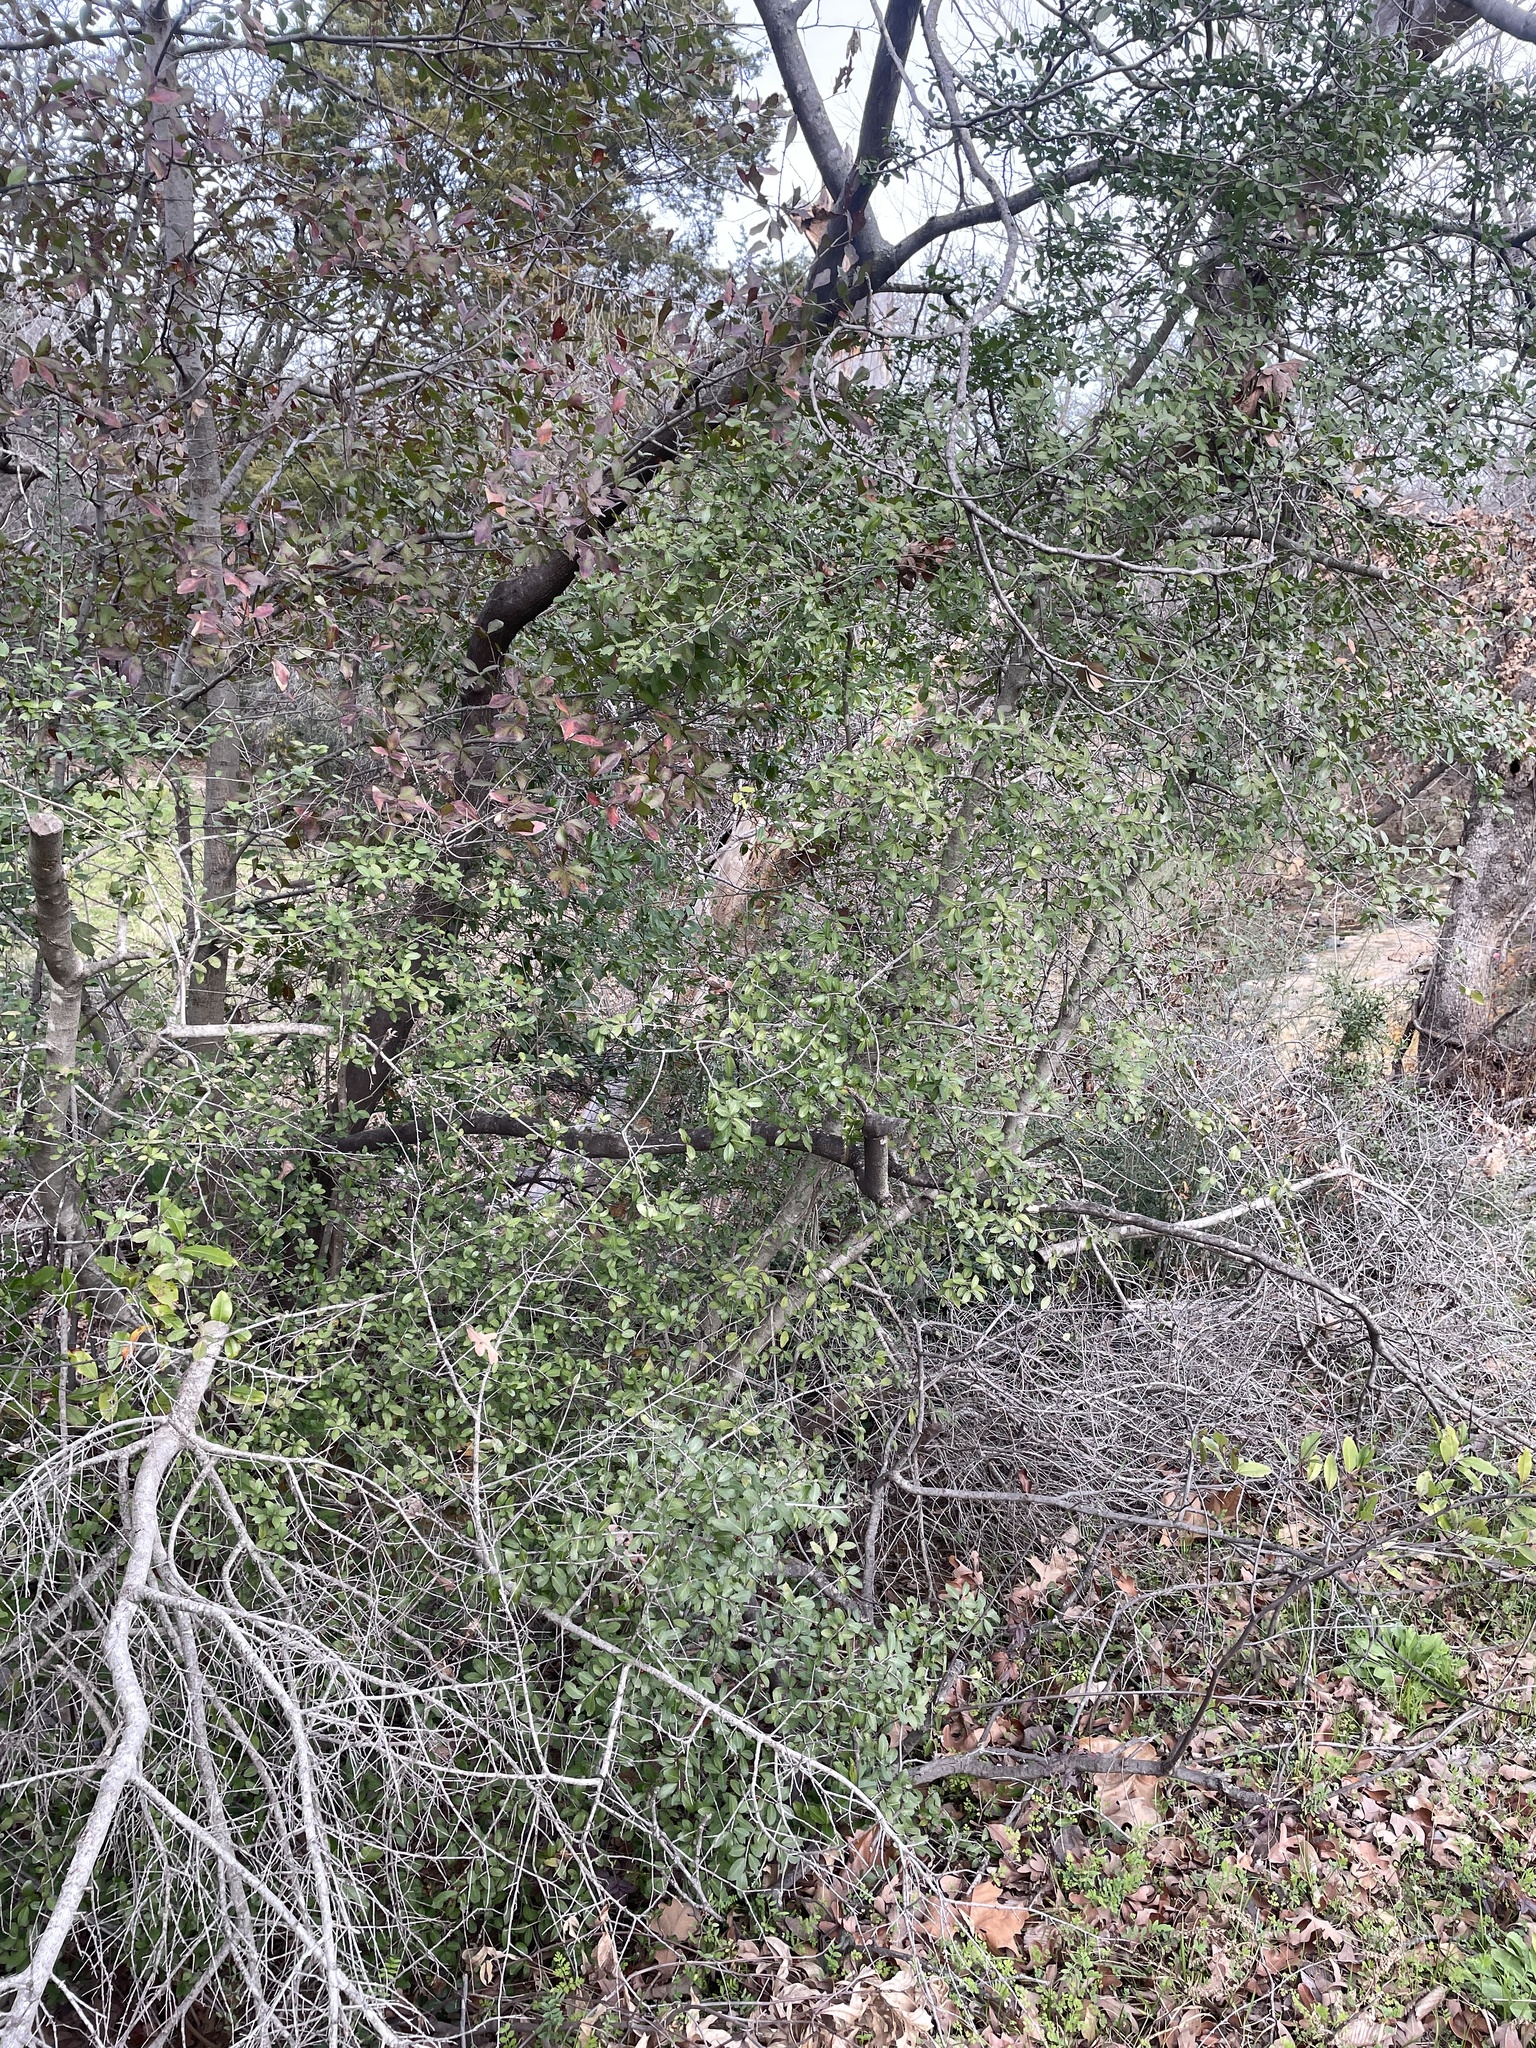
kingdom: Plantae
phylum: Tracheophyta
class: Magnoliopsida
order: Aquifoliales
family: Aquifoliaceae
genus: Ilex
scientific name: Ilex vomitoria
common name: Yaupon holly
